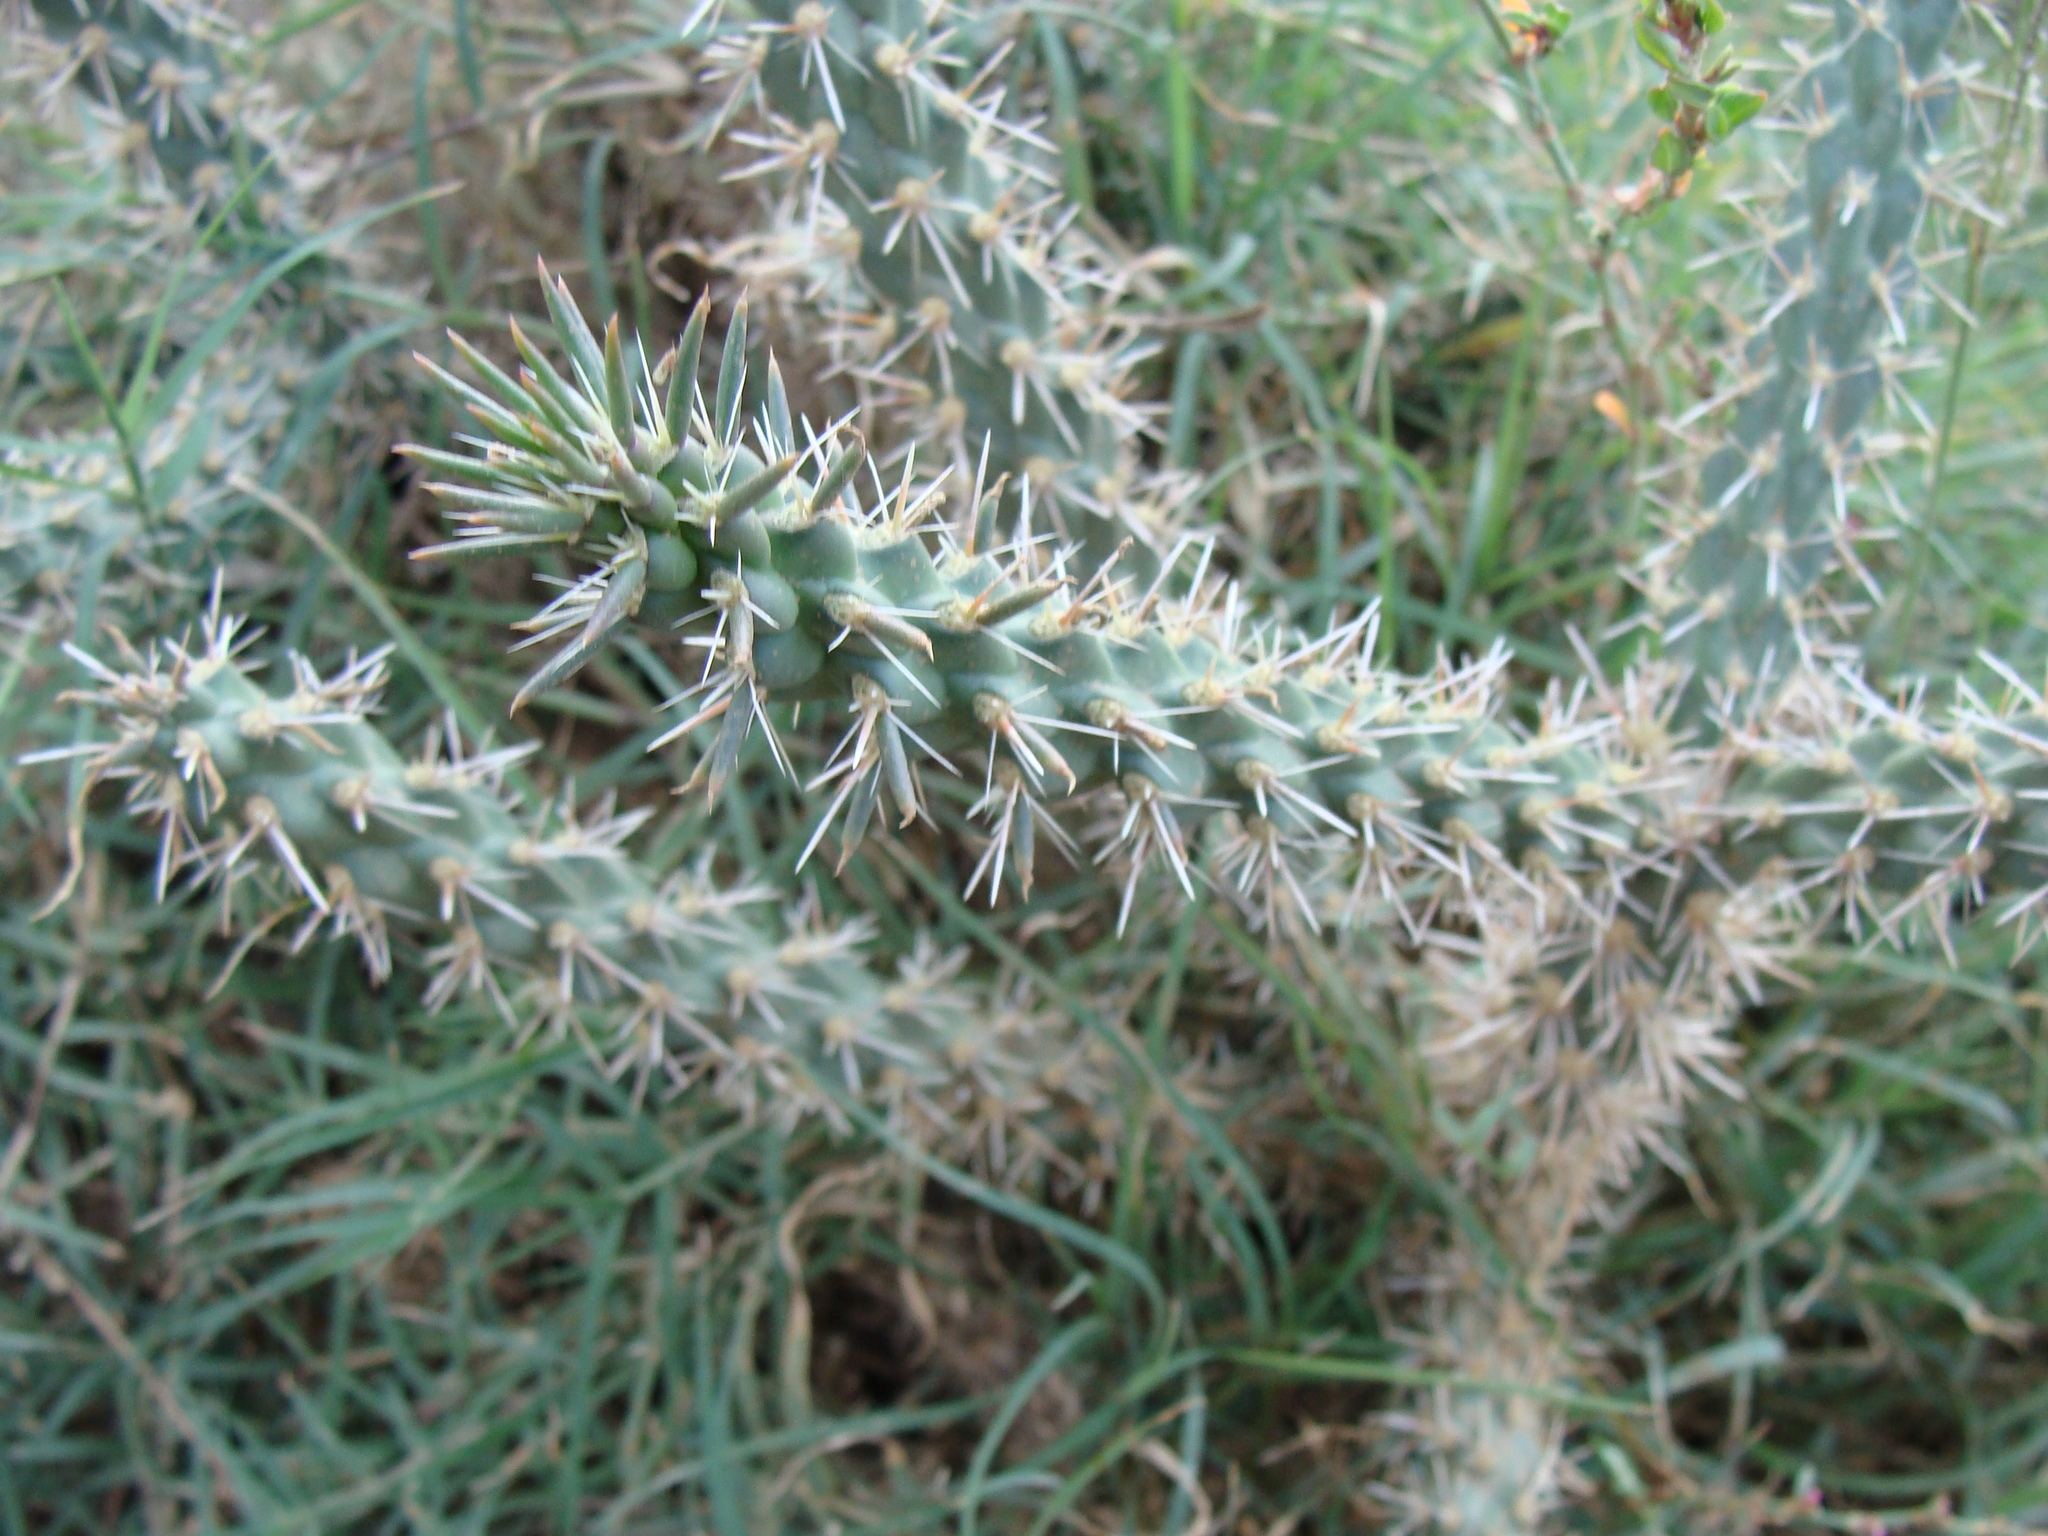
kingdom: Plantae
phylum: Tracheophyta
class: Magnoliopsida
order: Caryophyllales
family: Cactaceae
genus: Cylindropuntia
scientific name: Cylindropuntia imbricata
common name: Candelabrum cactus
